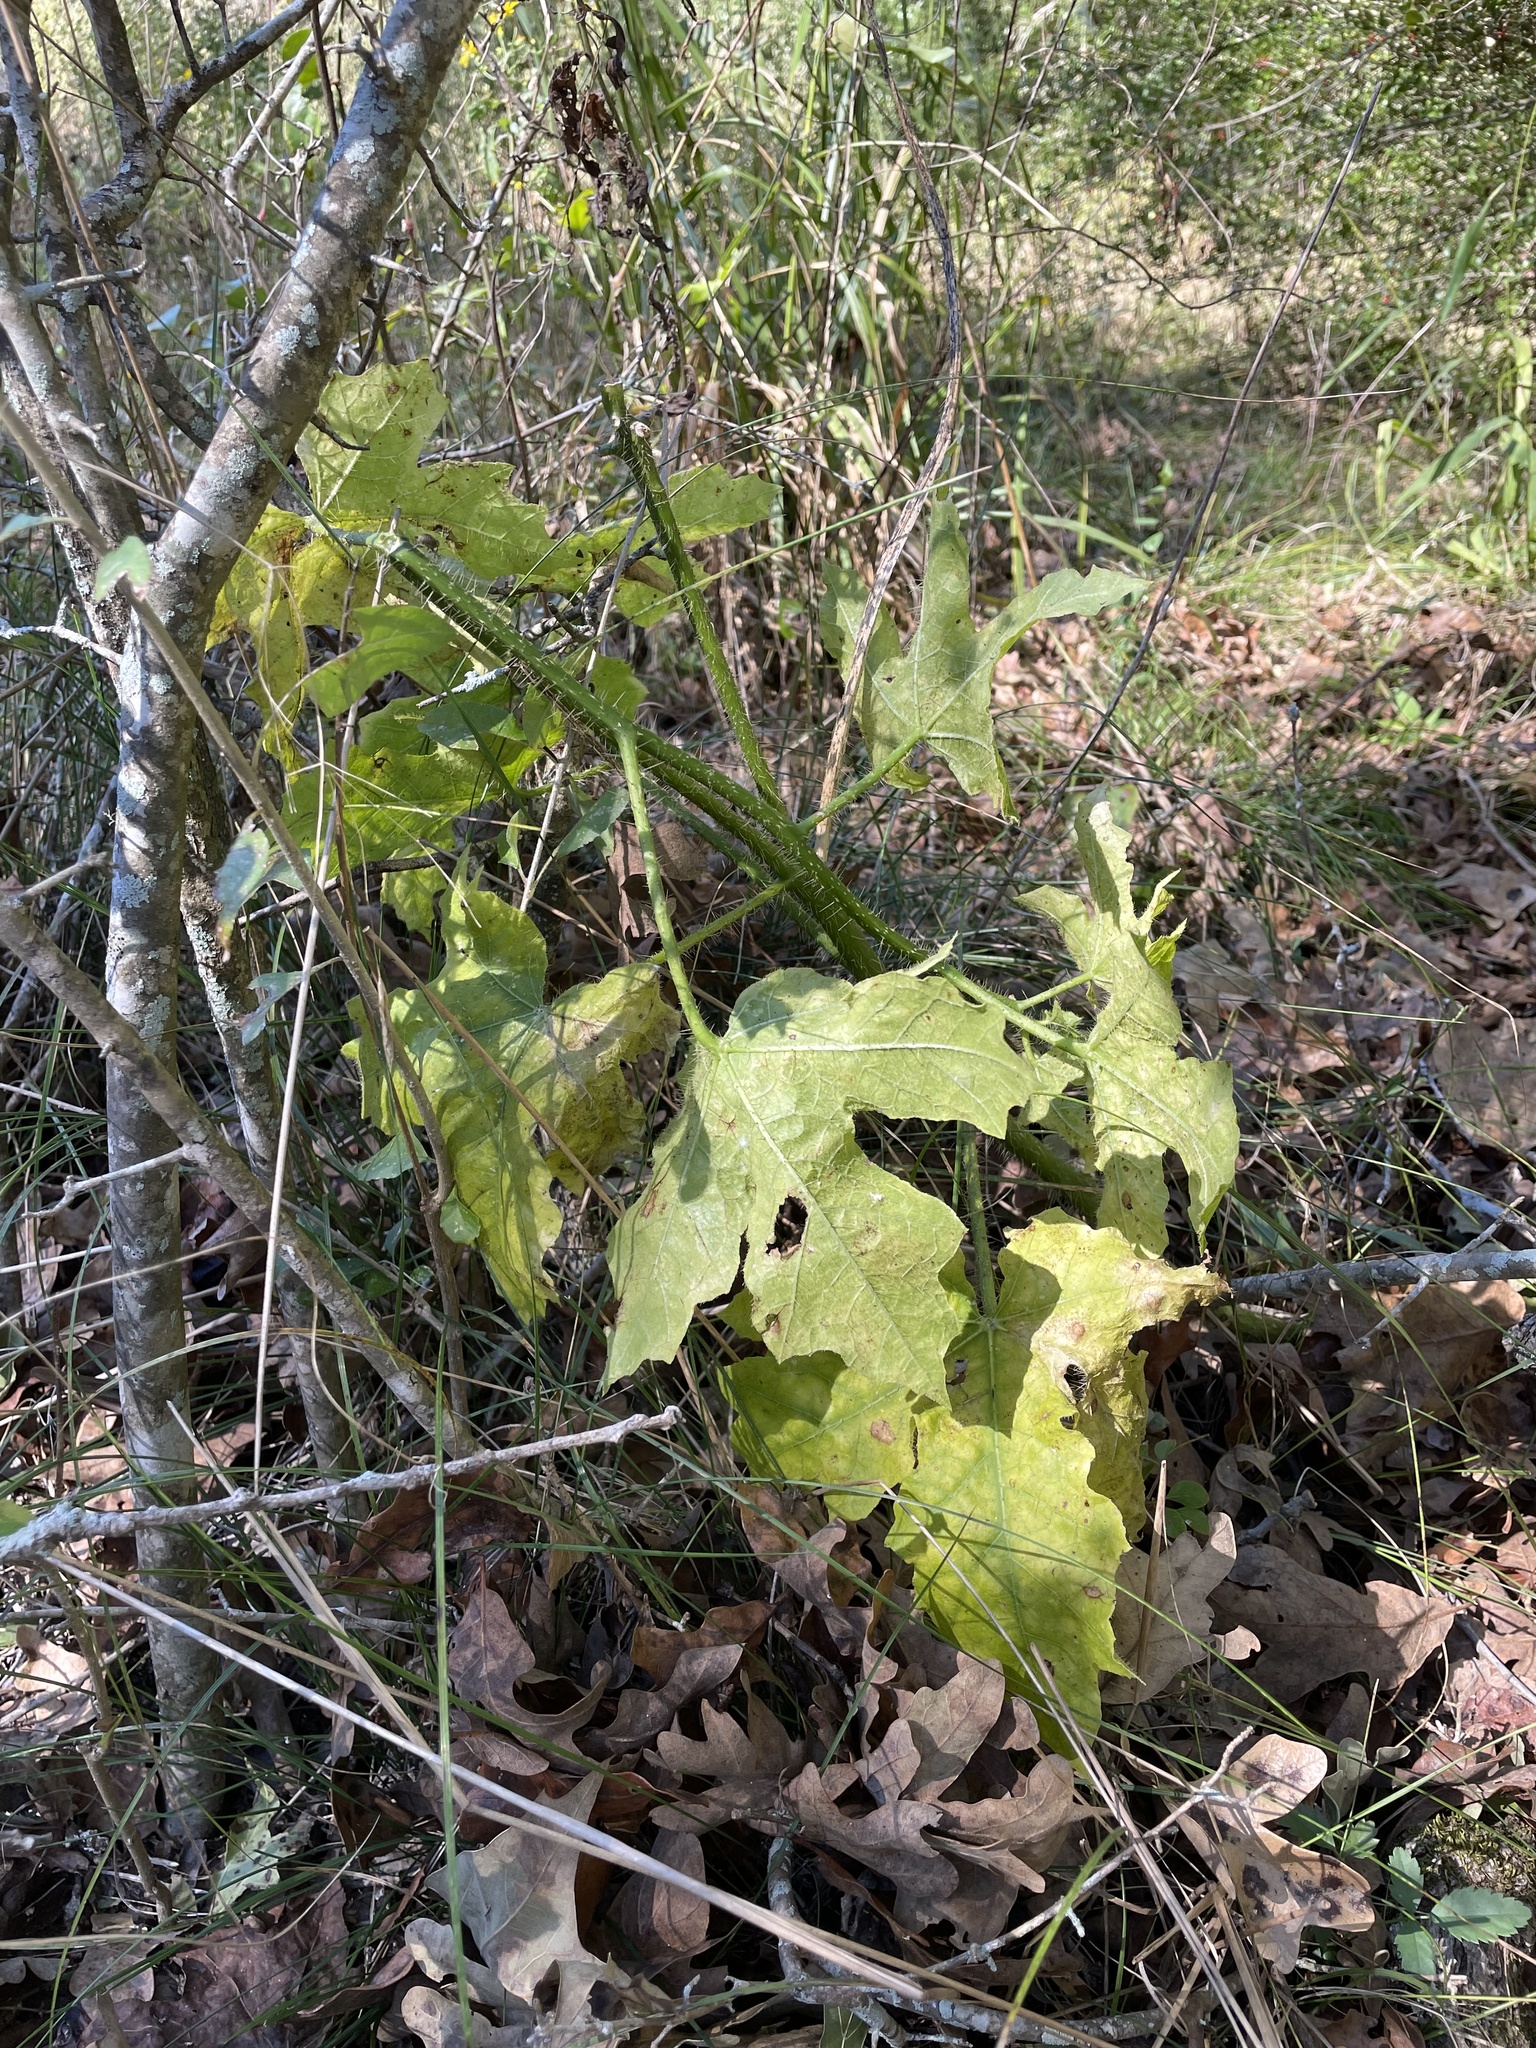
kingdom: Plantae
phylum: Tracheophyta
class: Magnoliopsida
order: Malpighiales
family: Euphorbiaceae
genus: Cnidoscolus
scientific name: Cnidoscolus texanus
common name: Texas bull-nettle
